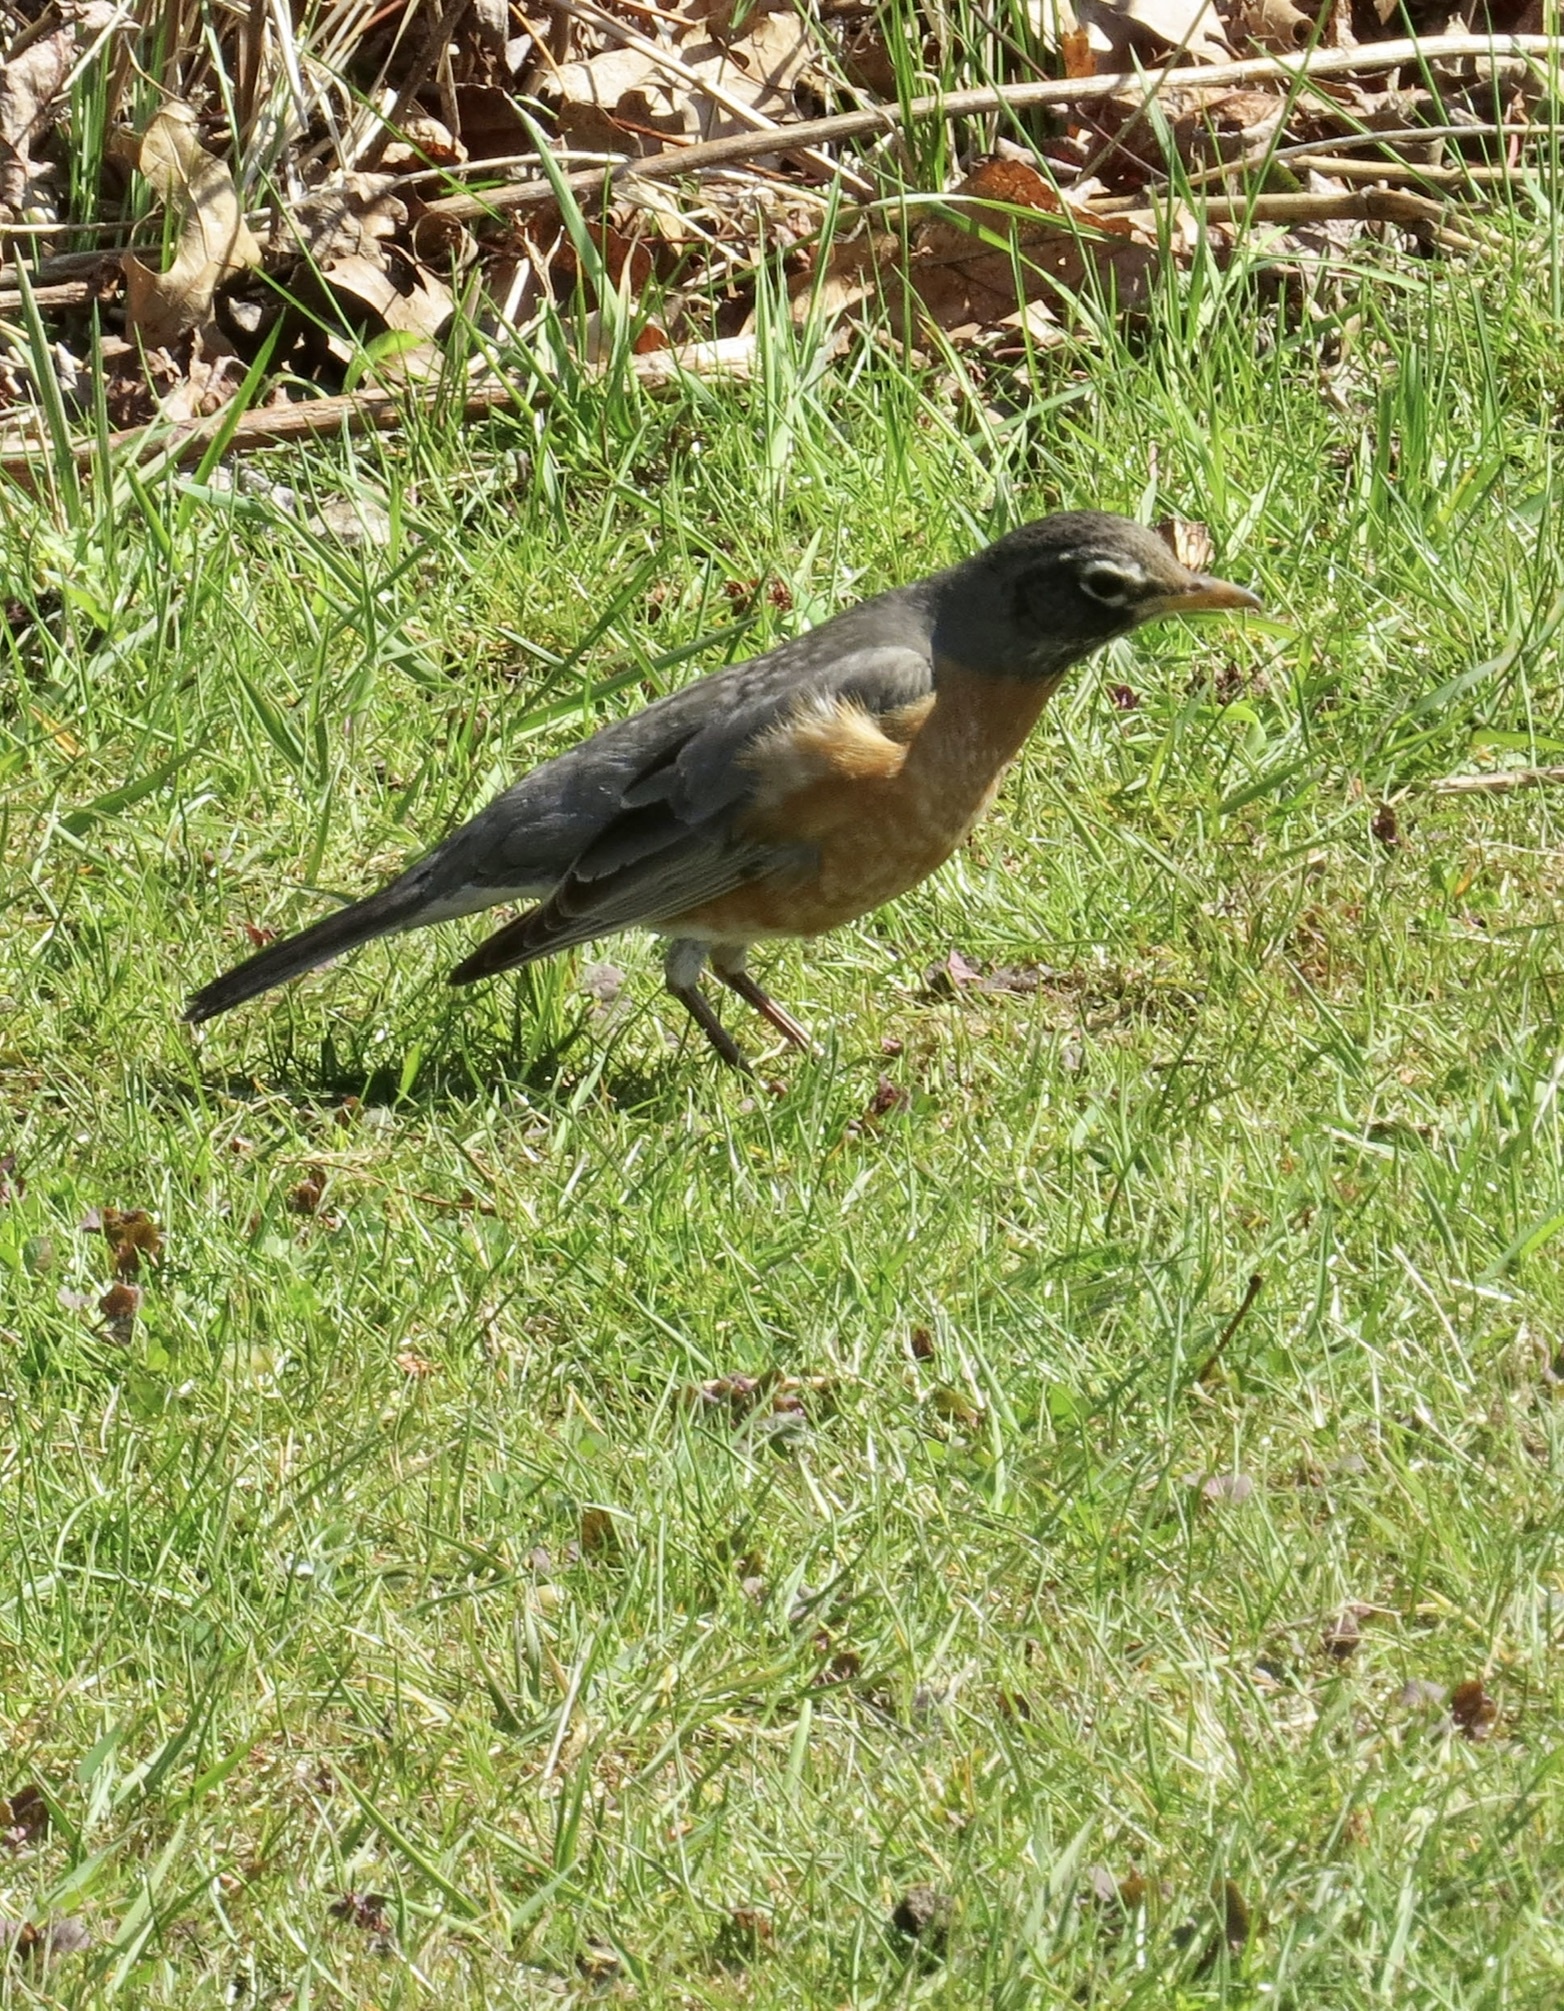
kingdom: Animalia
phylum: Chordata
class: Aves
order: Passeriformes
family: Turdidae
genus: Turdus
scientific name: Turdus migratorius
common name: American robin
